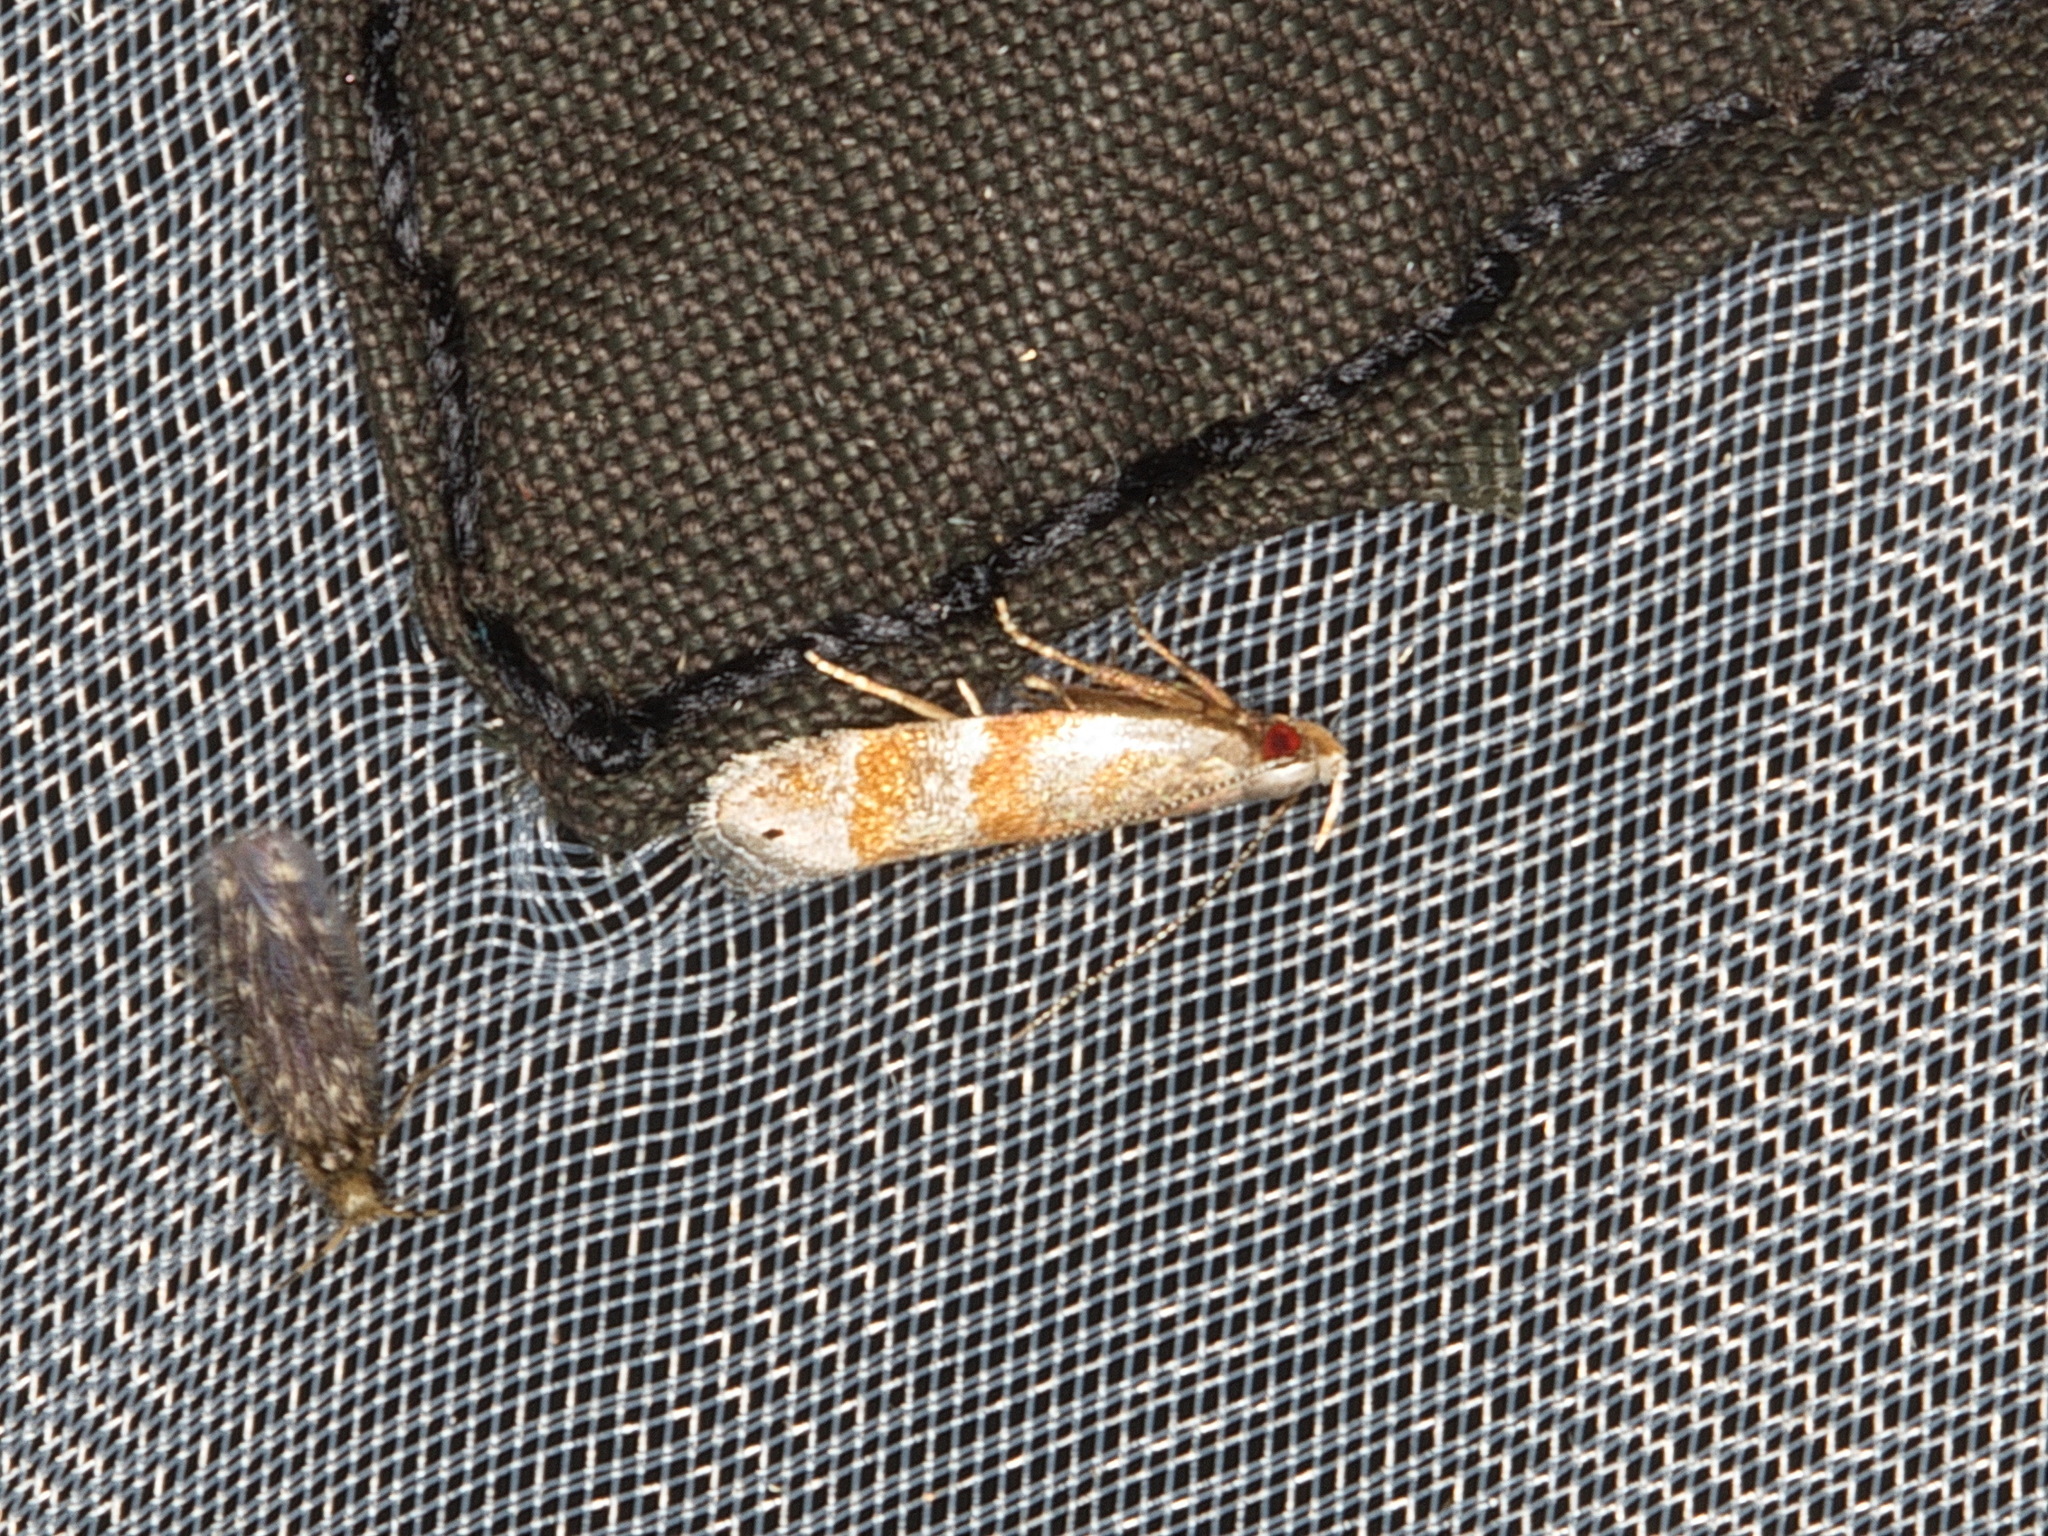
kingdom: Animalia
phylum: Arthropoda
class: Insecta
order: Lepidoptera
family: Gelechiidae
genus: Battaristis
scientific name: Battaristis vittella
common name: Orange stripe-backed moth
